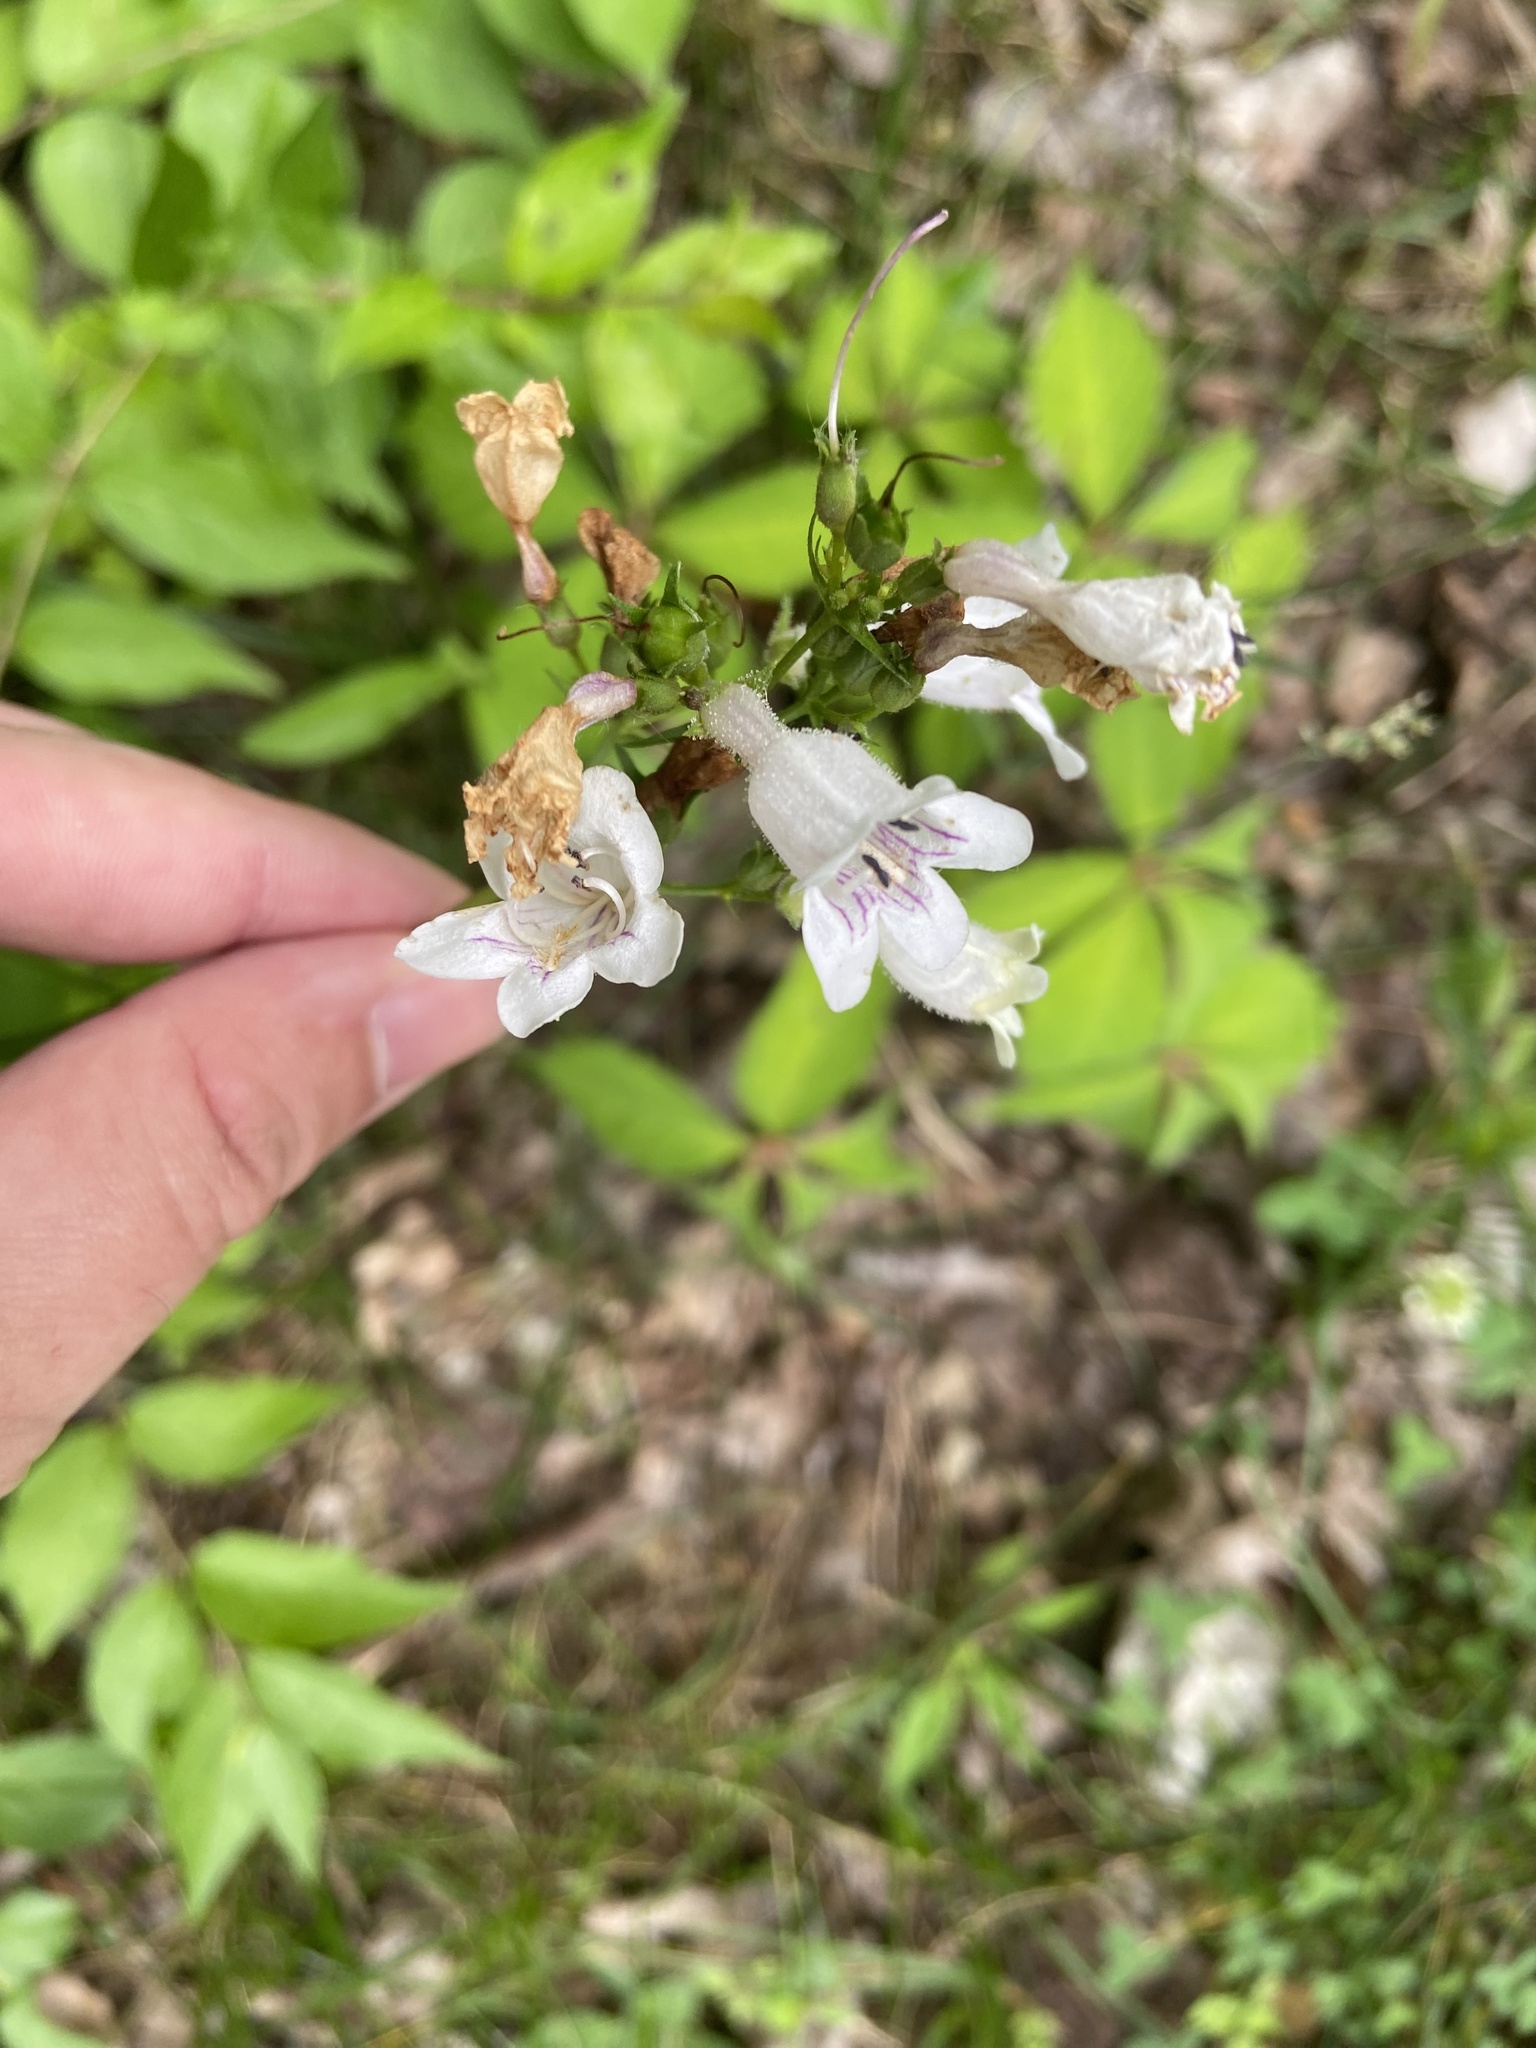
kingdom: Plantae
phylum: Tracheophyta
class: Magnoliopsida
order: Lamiales
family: Plantaginaceae
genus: Penstemon
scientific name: Penstemon digitalis
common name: Foxglove beardtongue
